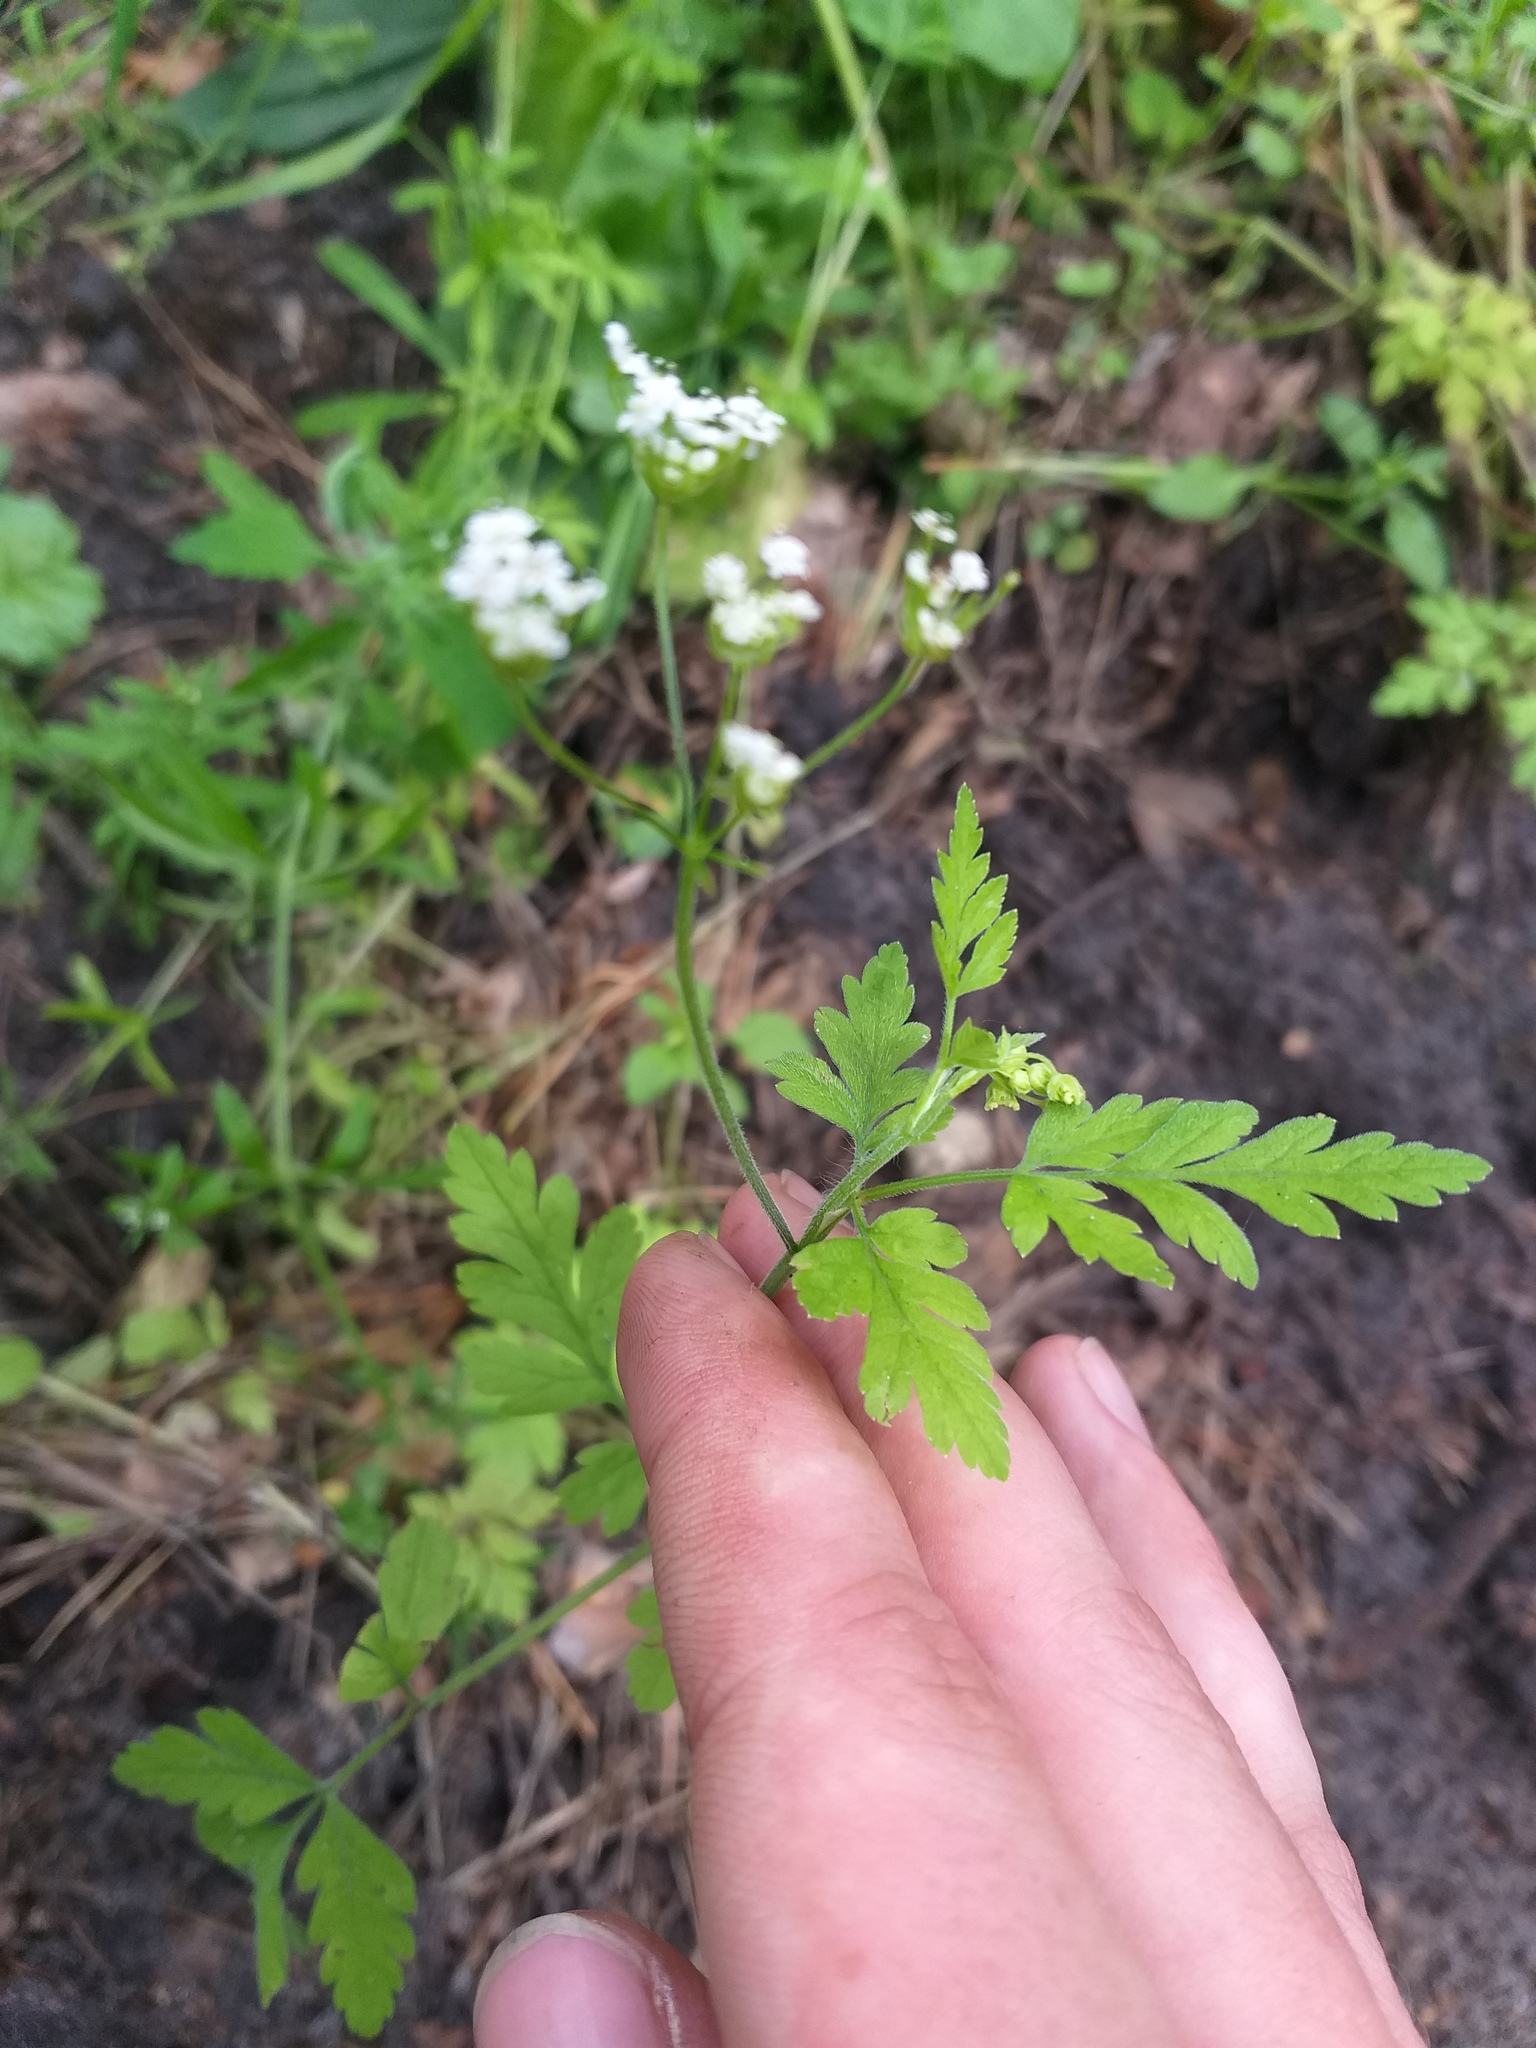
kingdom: Plantae
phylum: Tracheophyta
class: Magnoliopsida
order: Apiales
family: Apiaceae
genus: Torilis
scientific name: Torilis japonica
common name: Upright hedge-parsley
